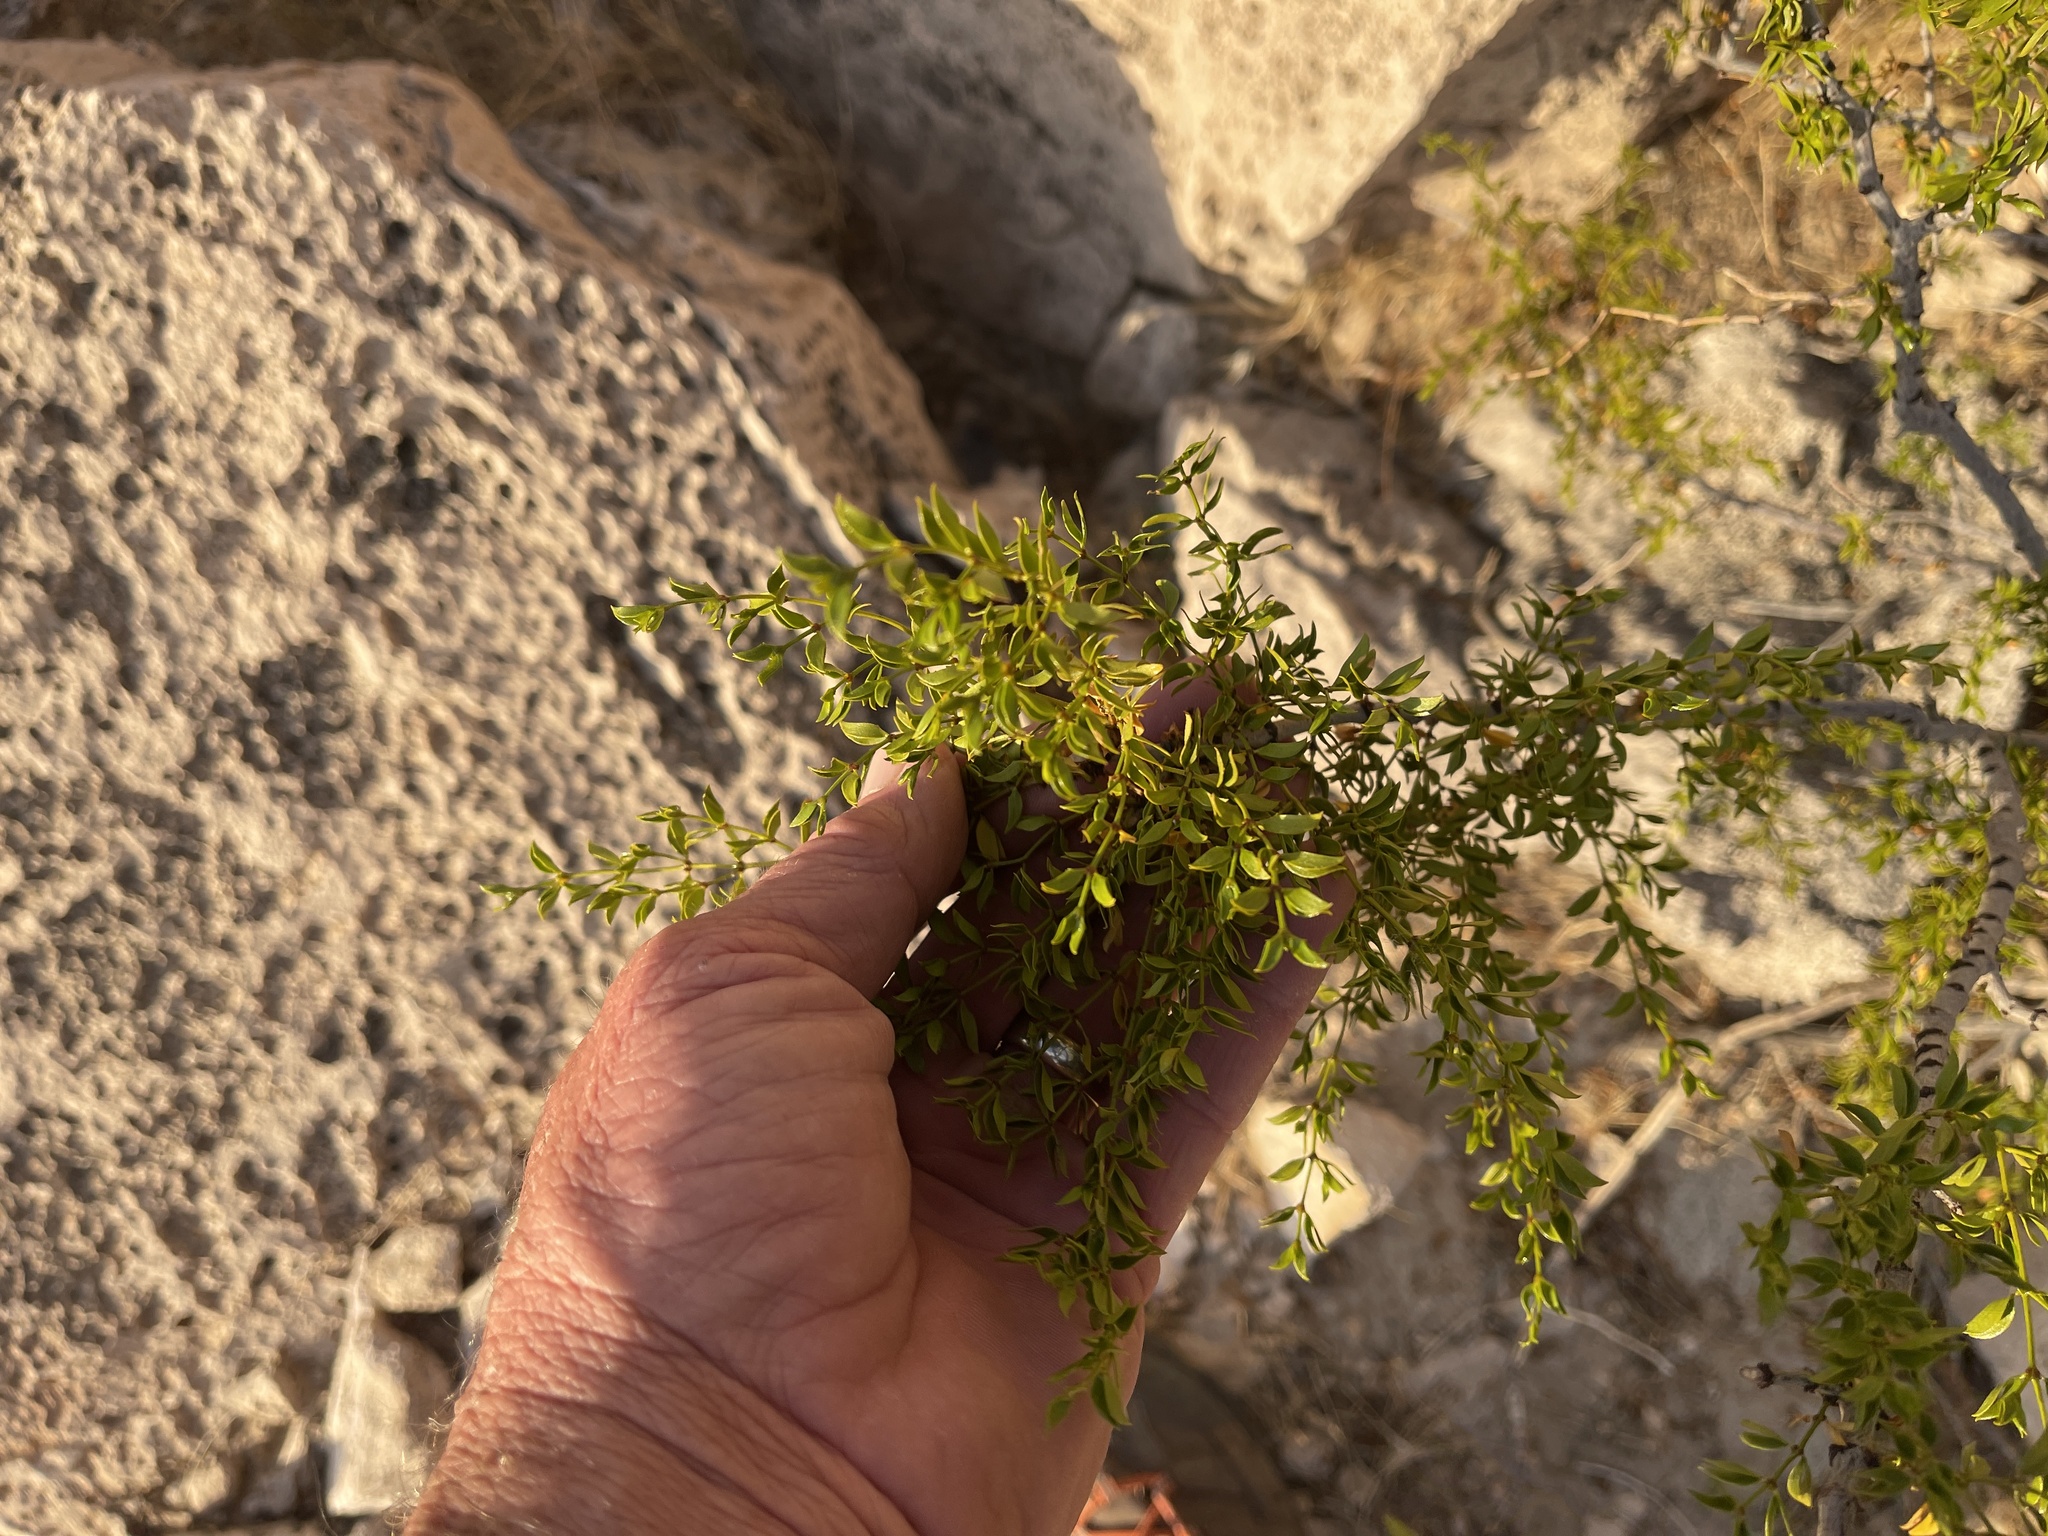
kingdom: Plantae
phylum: Tracheophyta
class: Magnoliopsida
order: Zygophyllales
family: Zygophyllaceae
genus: Larrea
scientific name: Larrea tridentata
